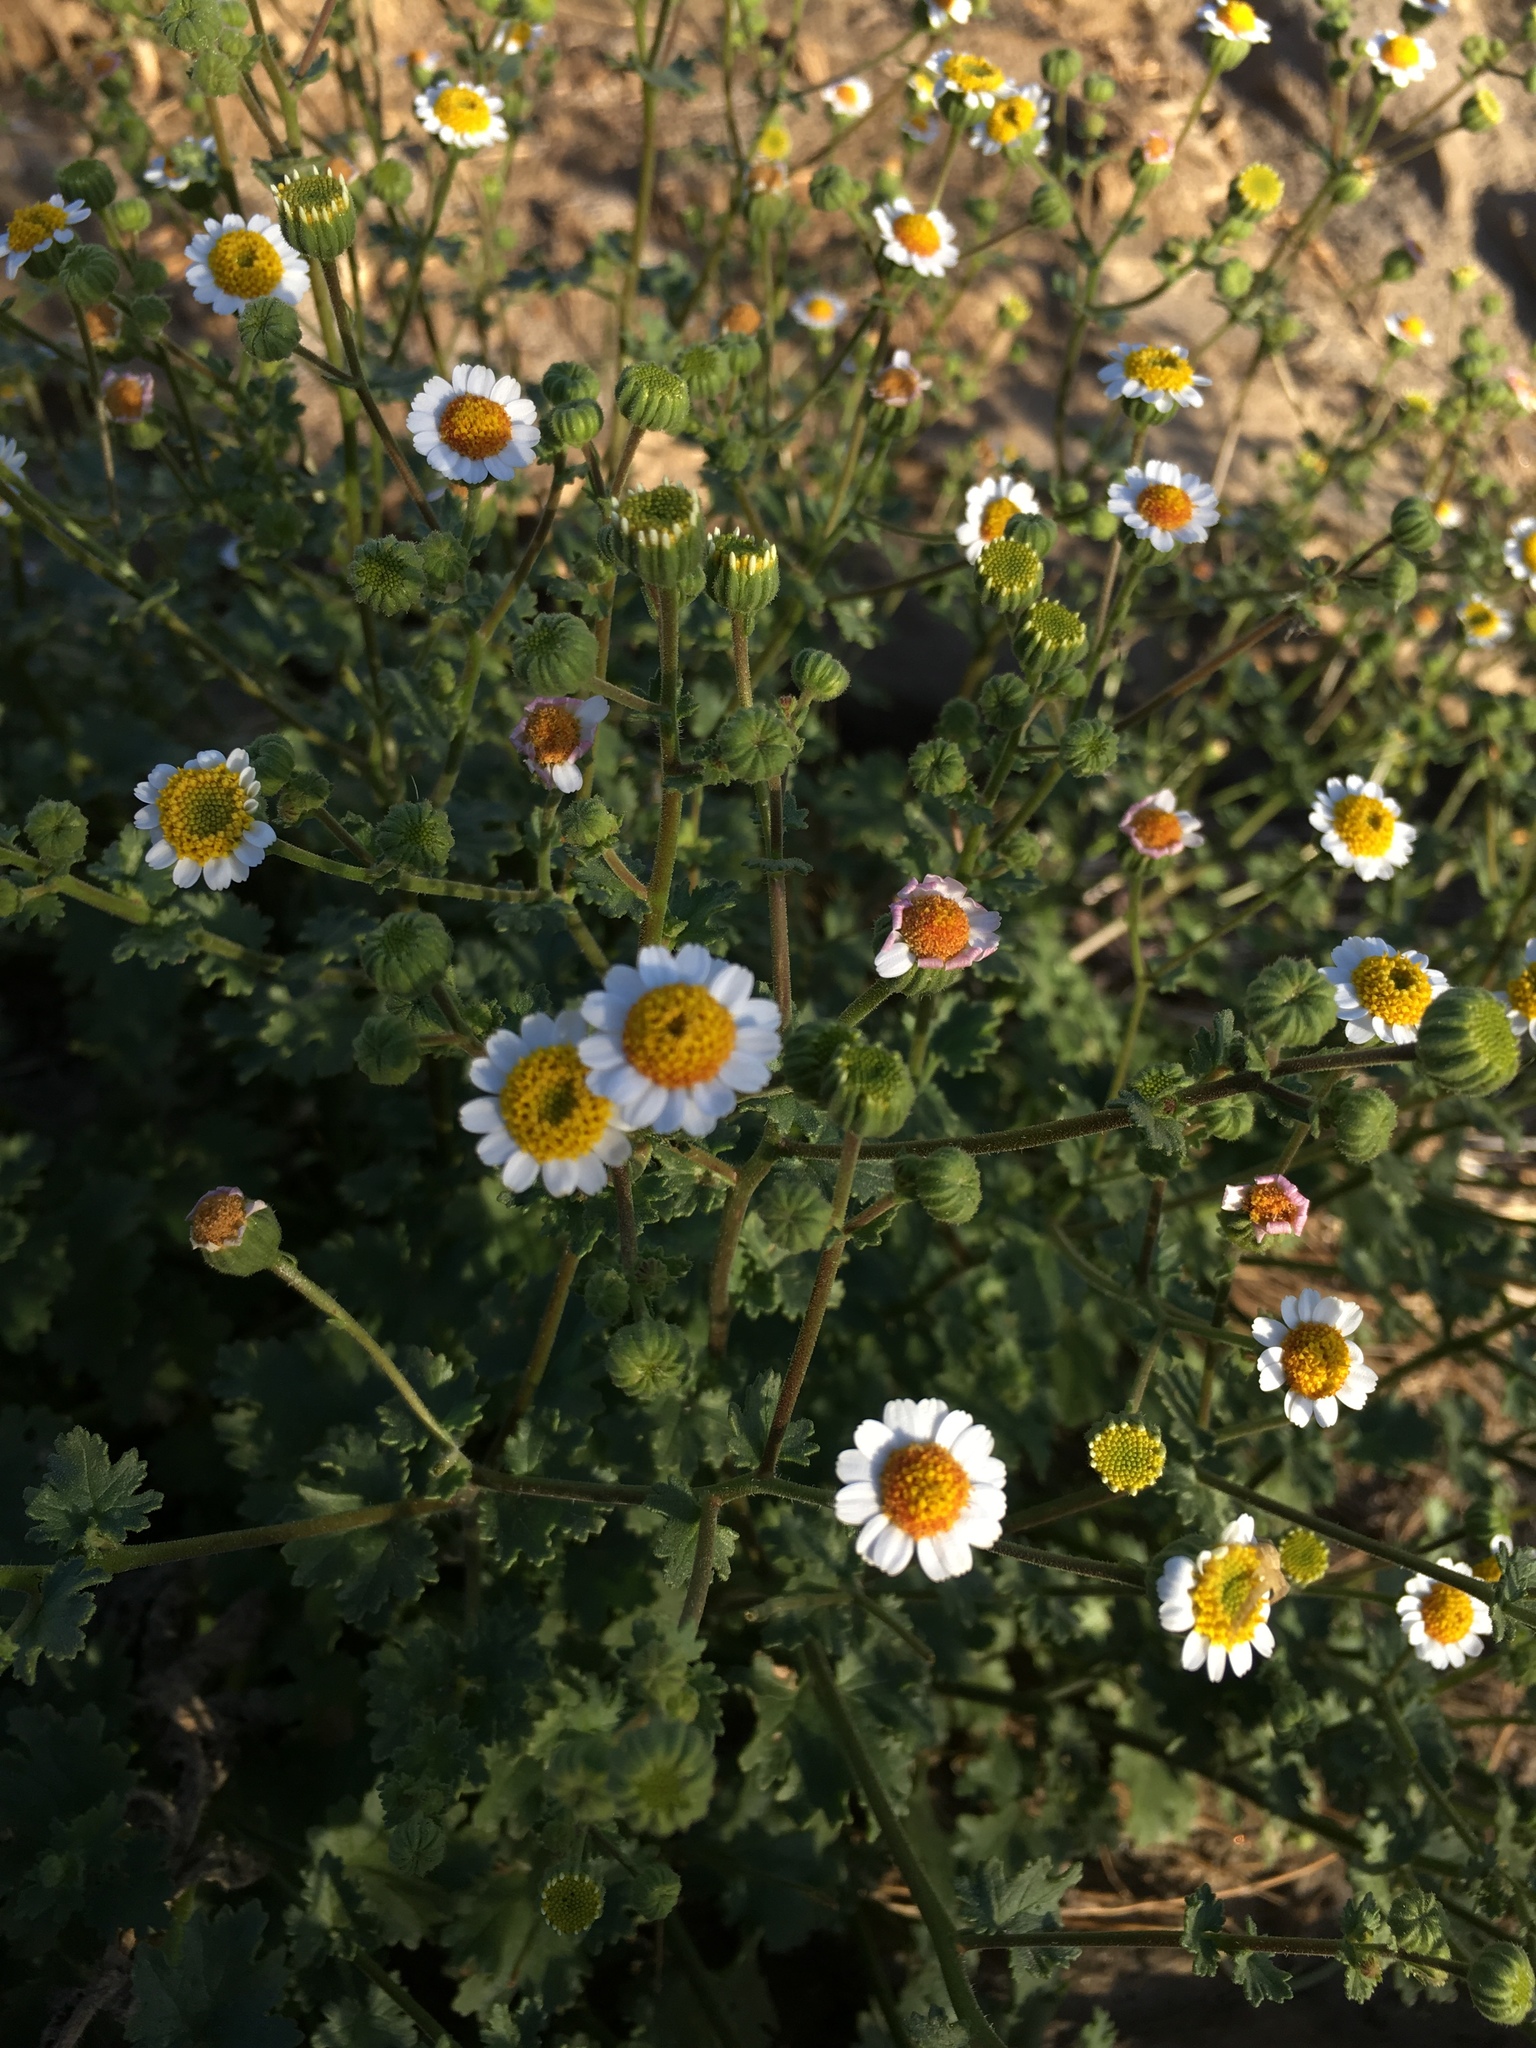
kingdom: Plantae
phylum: Tracheophyta
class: Magnoliopsida
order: Asterales
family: Asteraceae
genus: Laphamia
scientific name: Laphamia emoryi
